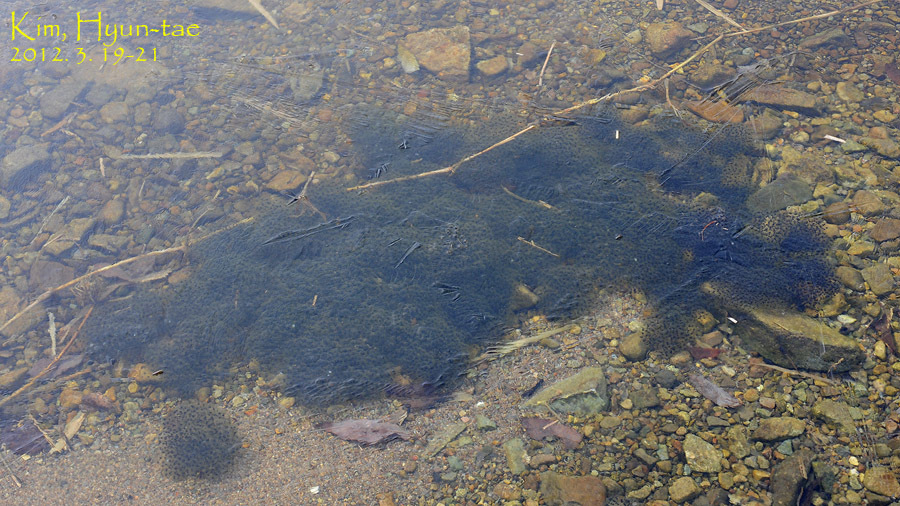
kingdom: Animalia
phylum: Chordata
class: Amphibia
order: Anura
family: Ranidae
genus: Rana
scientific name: Rana huanrenensis
